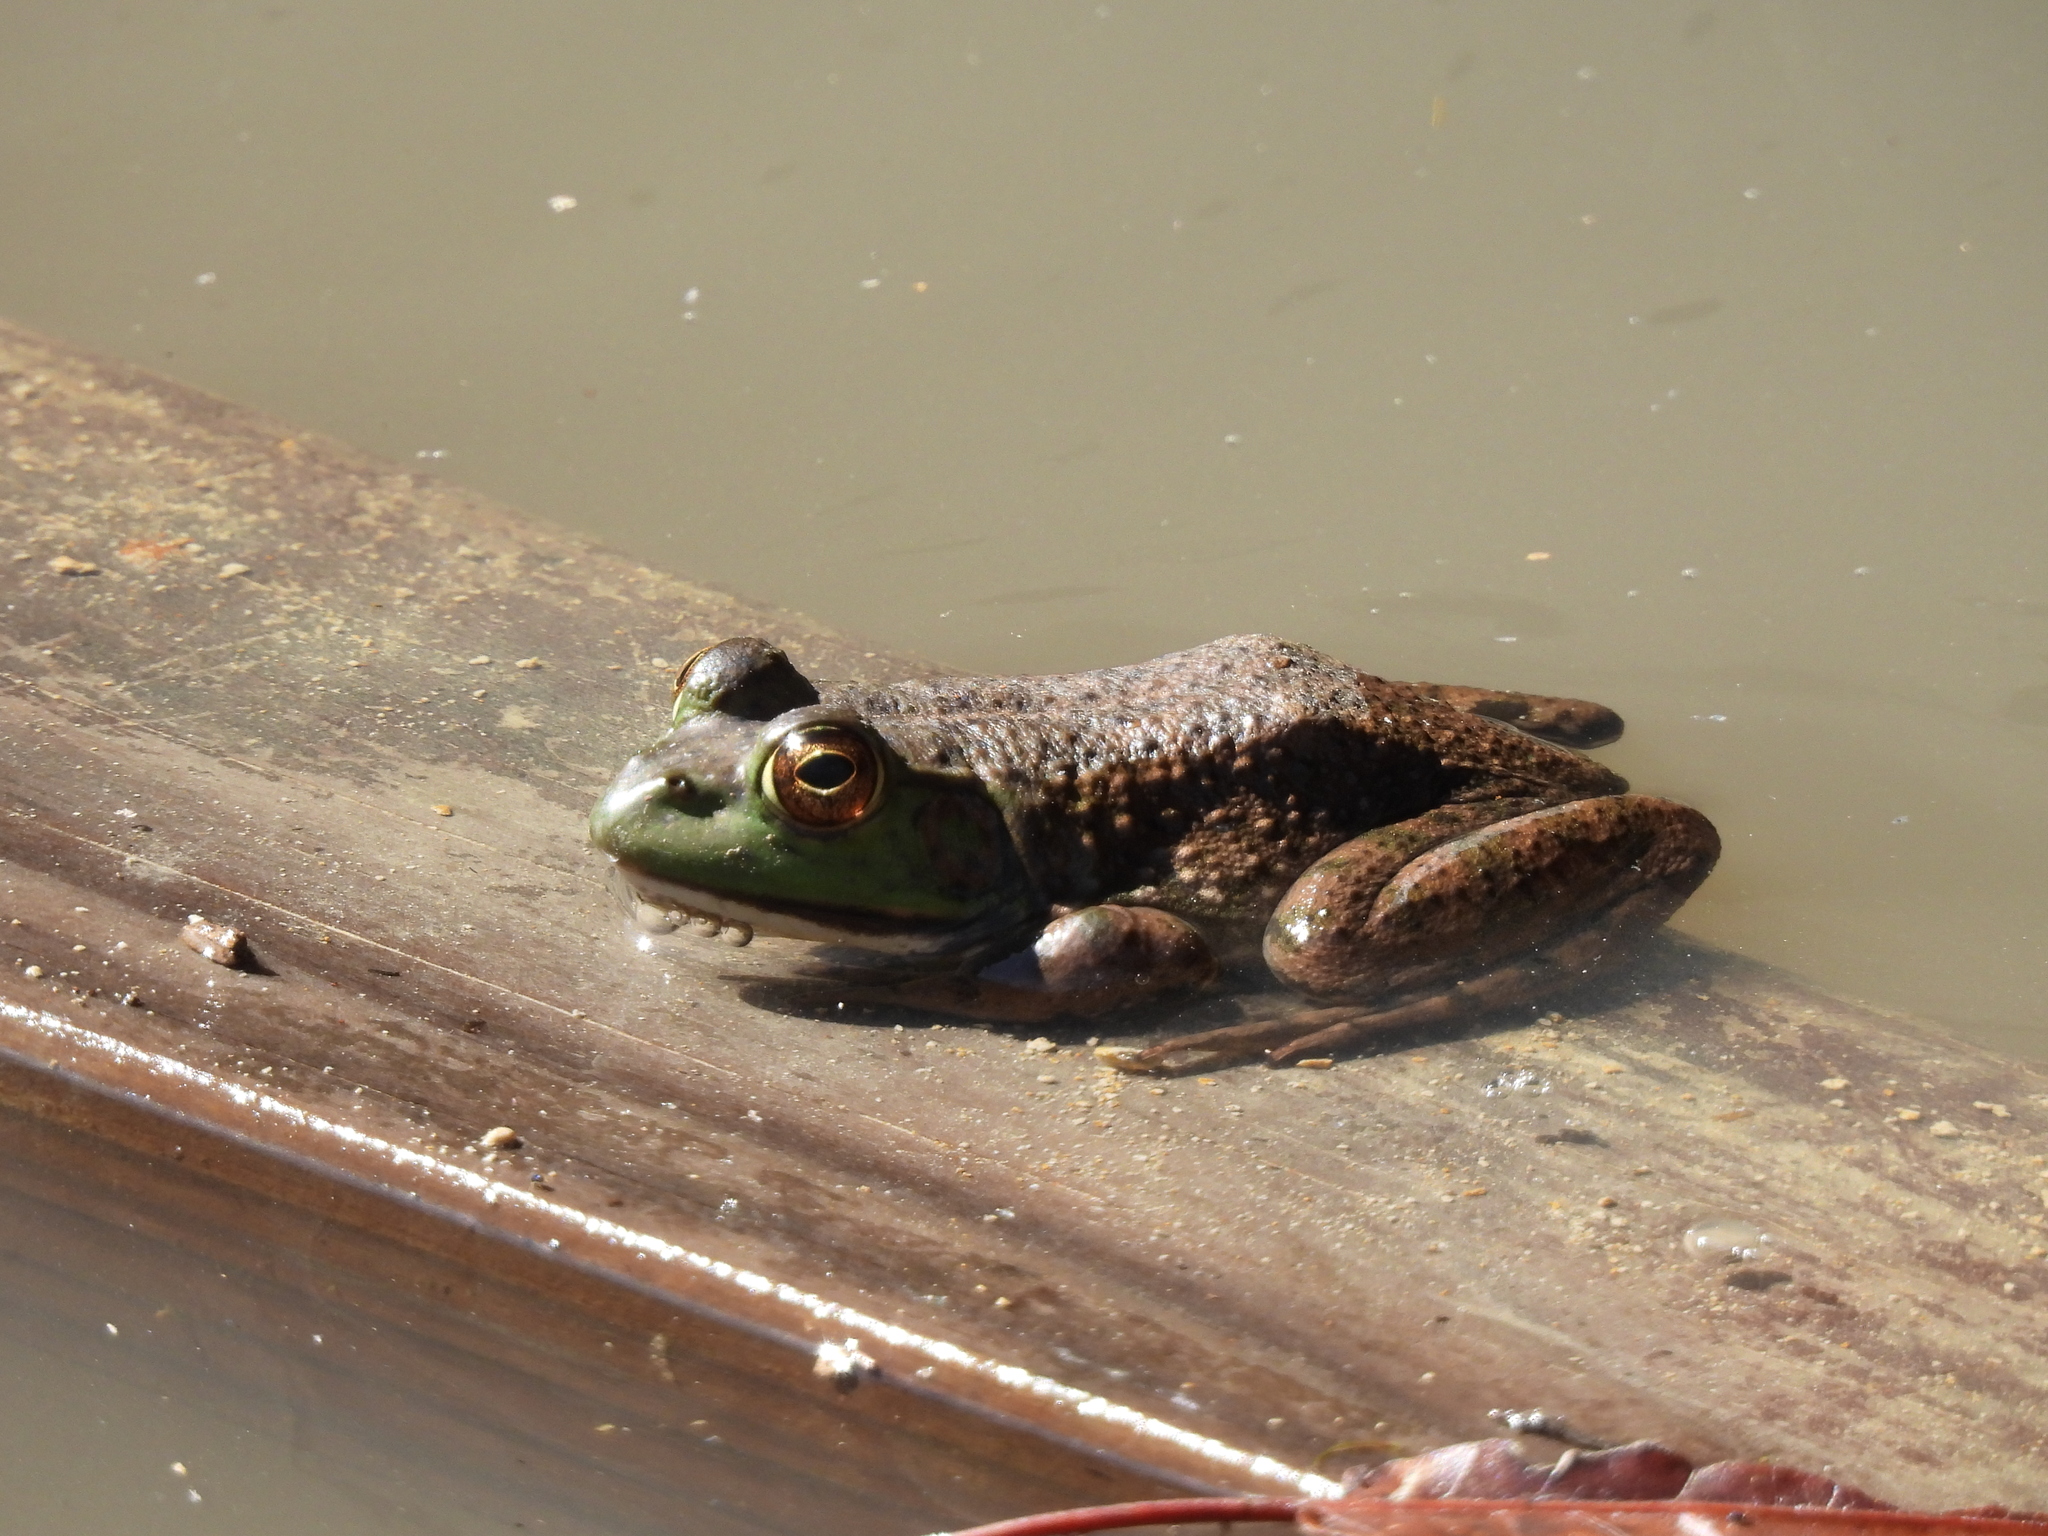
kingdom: Animalia
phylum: Chordata
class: Amphibia
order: Anura
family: Ranidae
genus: Lithobates
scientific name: Lithobates catesbeianus
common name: American bullfrog
